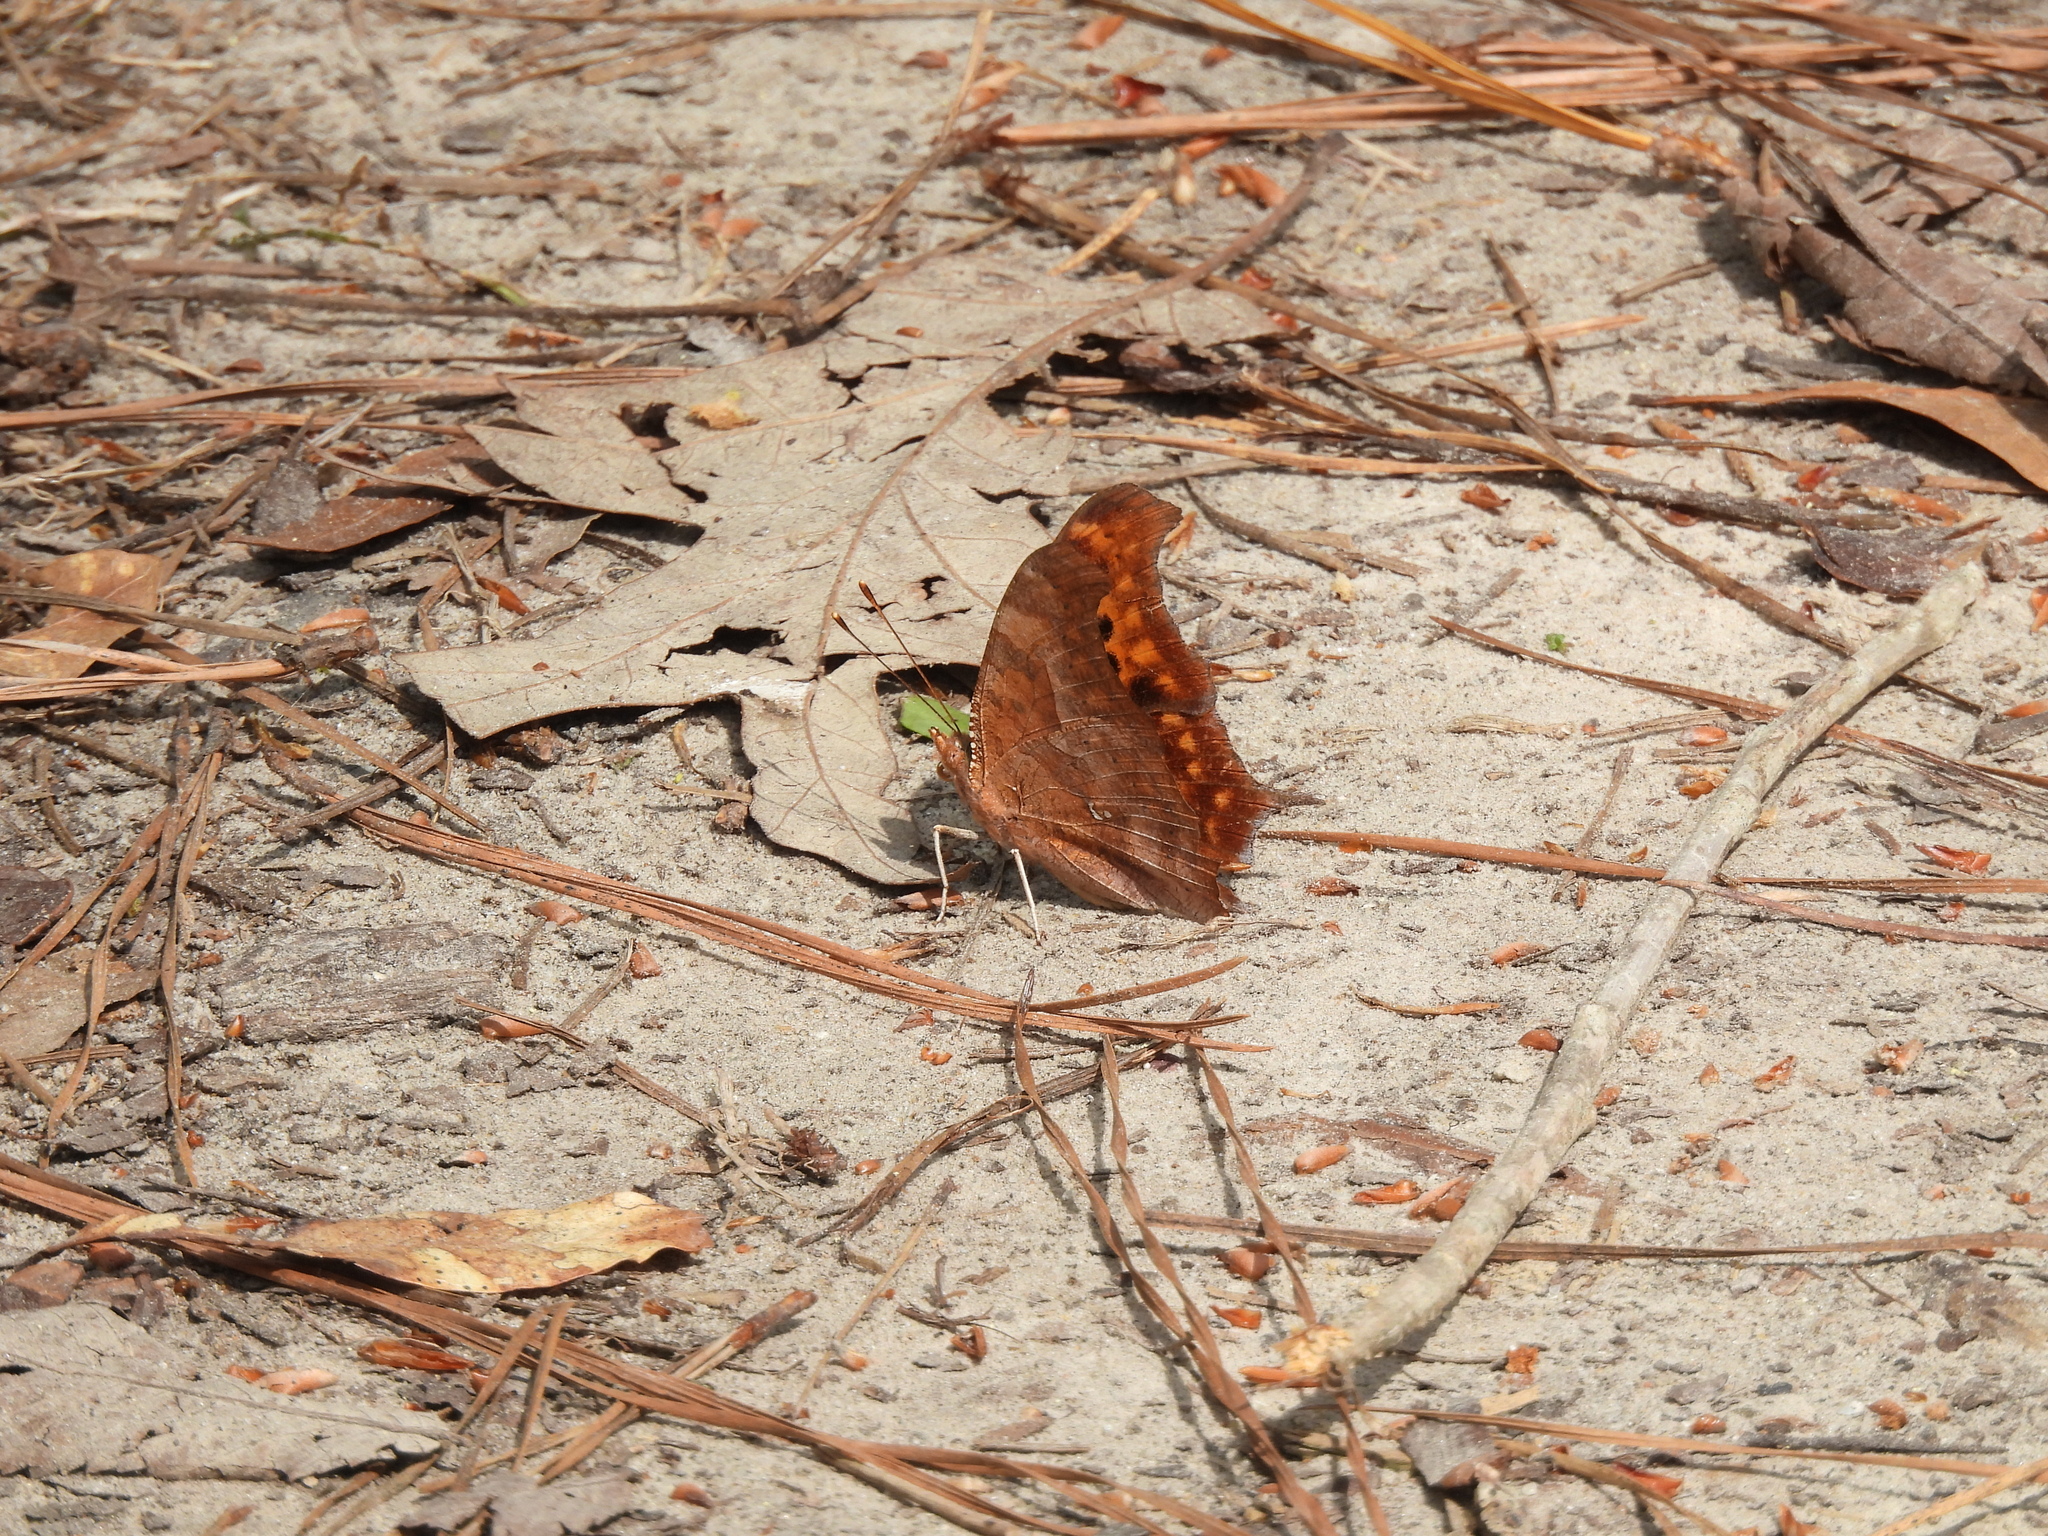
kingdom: Animalia
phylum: Arthropoda
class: Insecta
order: Lepidoptera
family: Nymphalidae
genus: Polygonia
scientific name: Polygonia interrogationis
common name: Question mark
